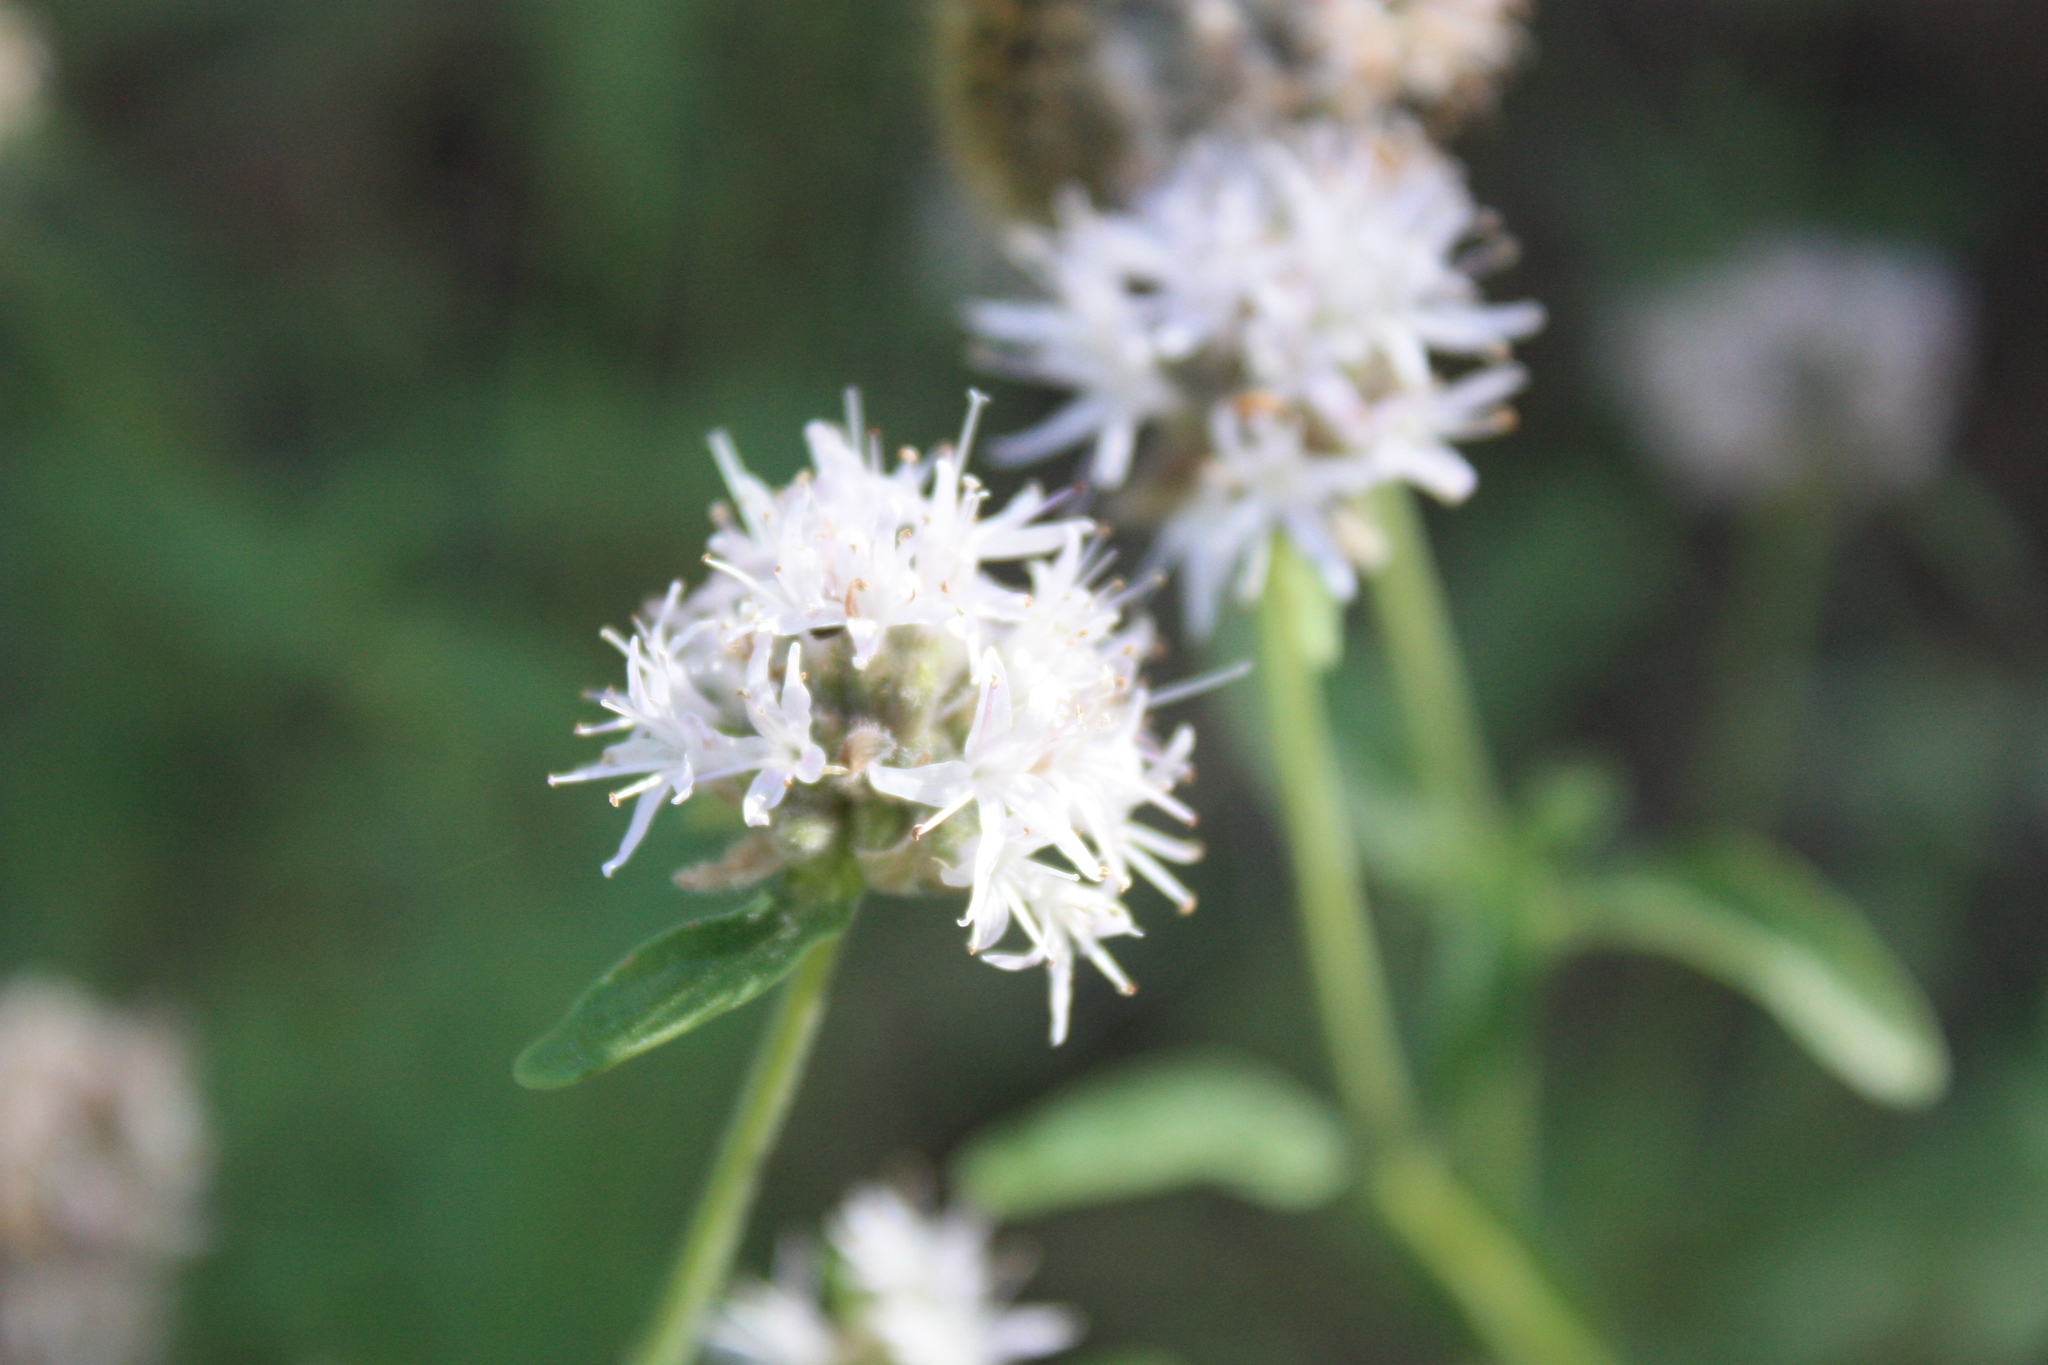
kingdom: Plantae
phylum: Tracheophyta
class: Magnoliopsida
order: Lamiales
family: Lamiaceae
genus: Monardella
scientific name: Monardella odoratissima
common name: Pacific monardella
